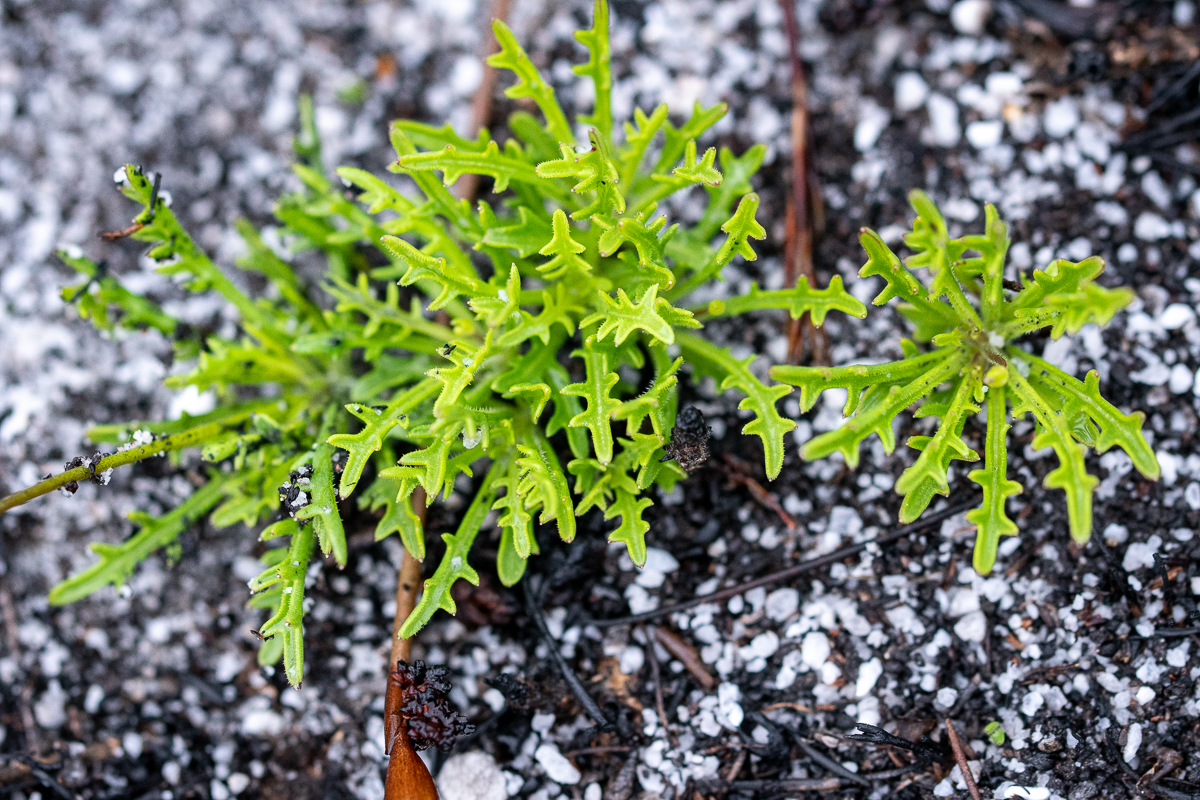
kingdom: Plantae
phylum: Tracheophyta
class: Magnoliopsida
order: Asterales
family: Campanulaceae
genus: Lobelia
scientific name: Lobelia coronopifolia
